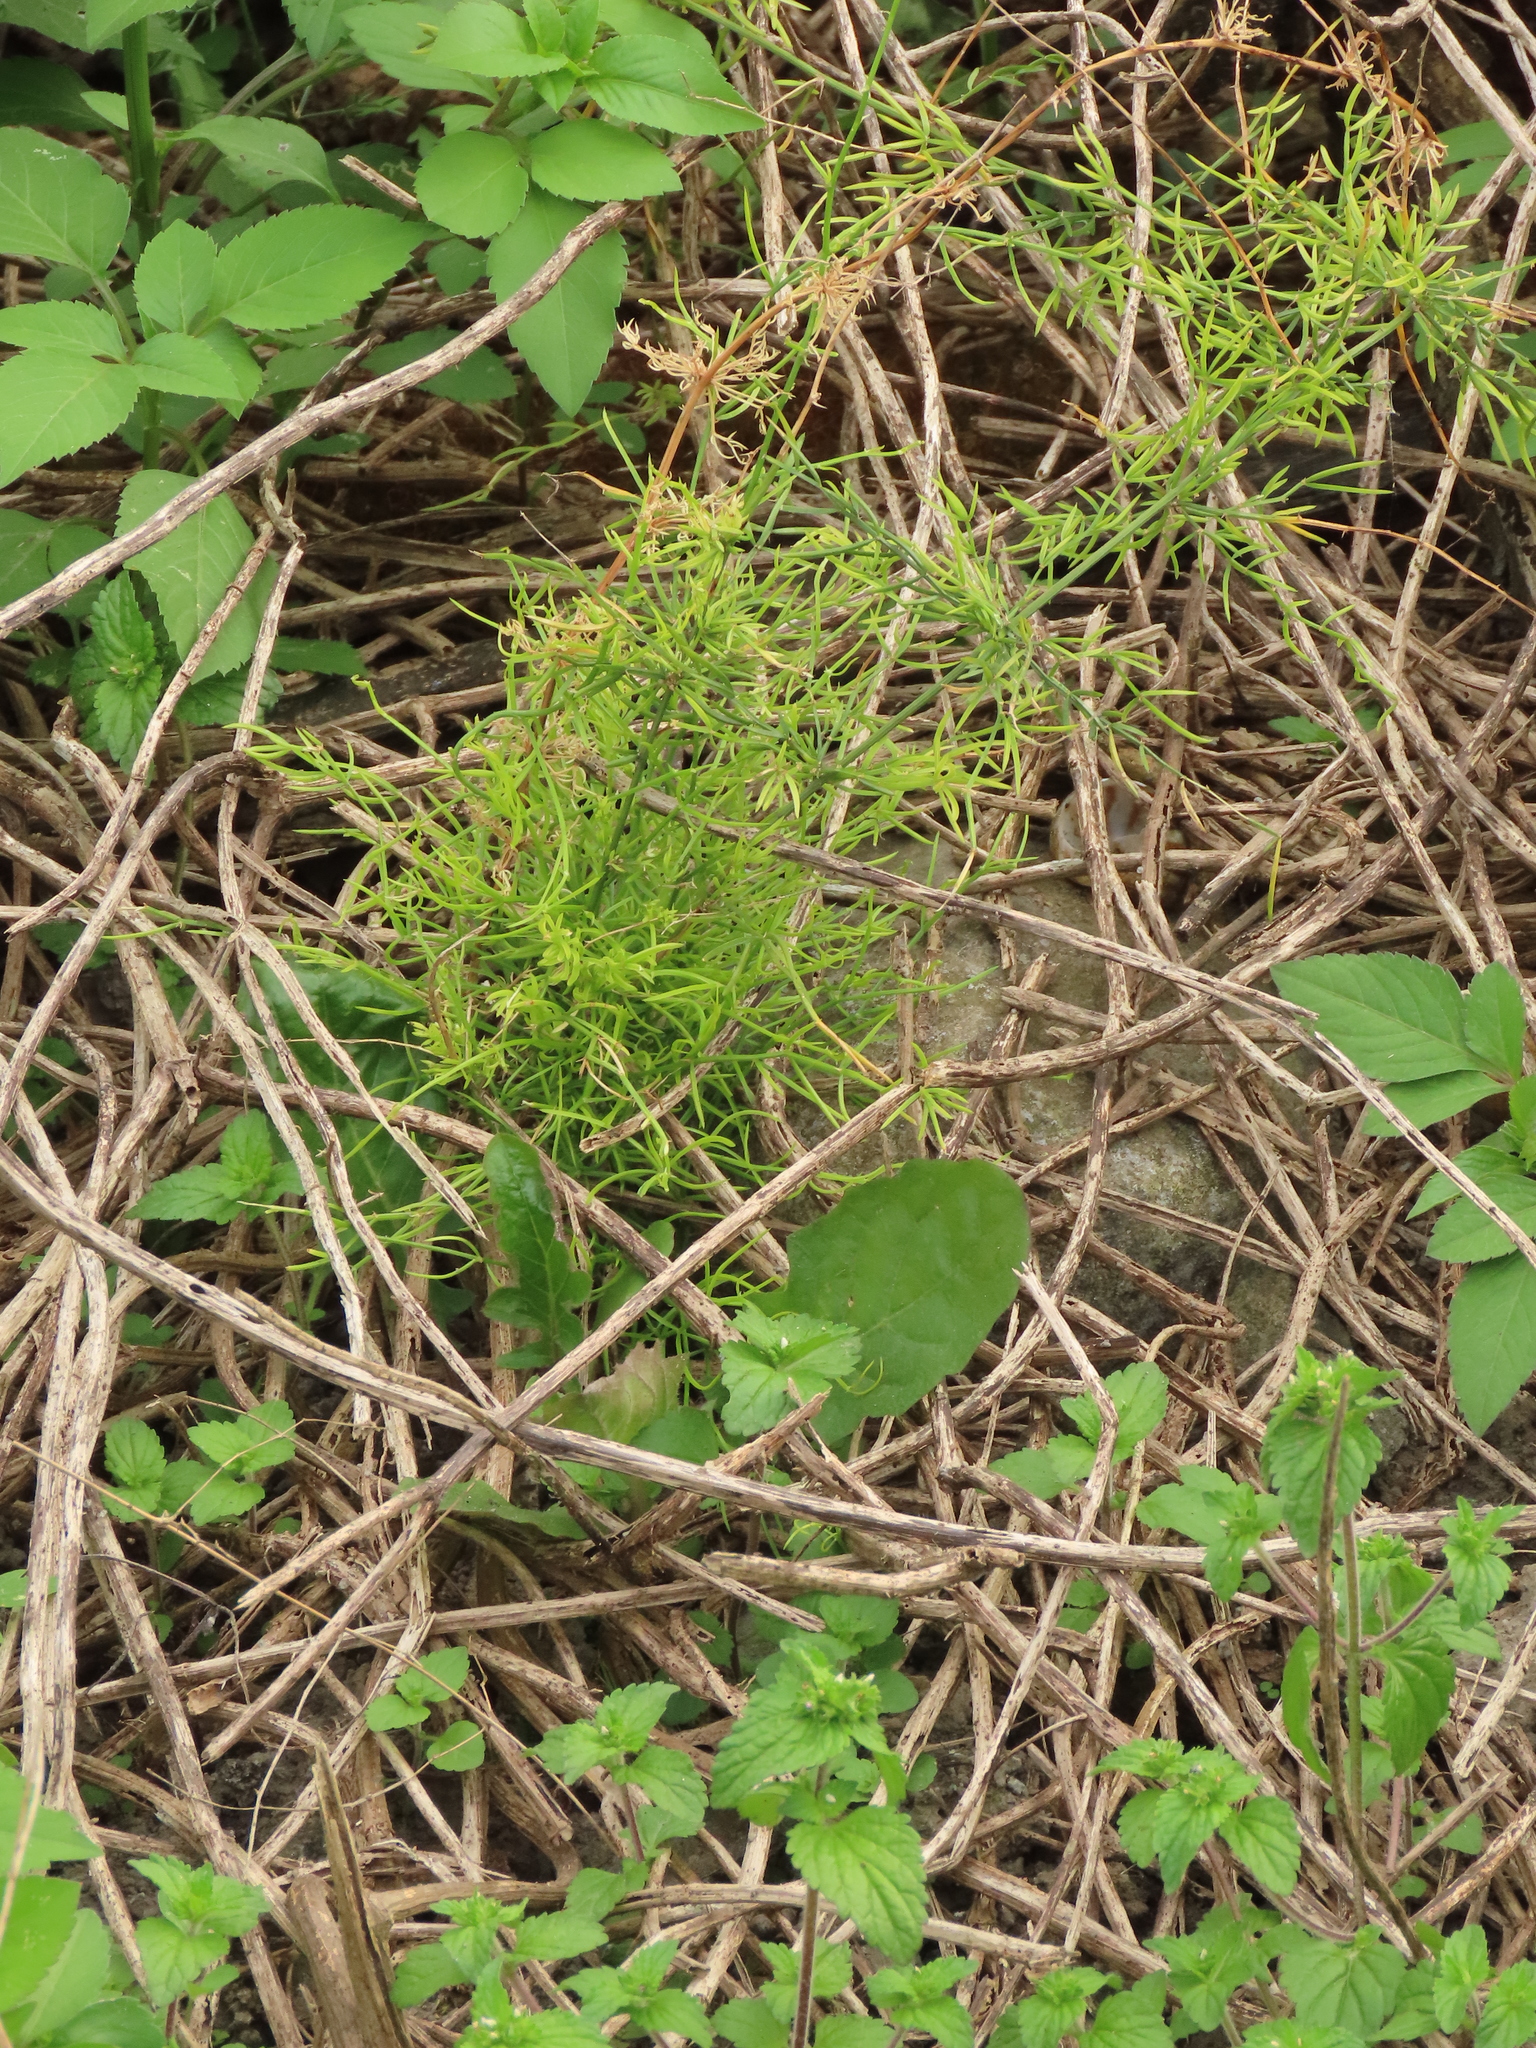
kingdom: Plantae
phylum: Tracheophyta
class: Liliopsida
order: Asparagales
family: Asparagaceae
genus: Asparagus
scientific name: Asparagus cochinchinensis
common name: Chinese asparagus
